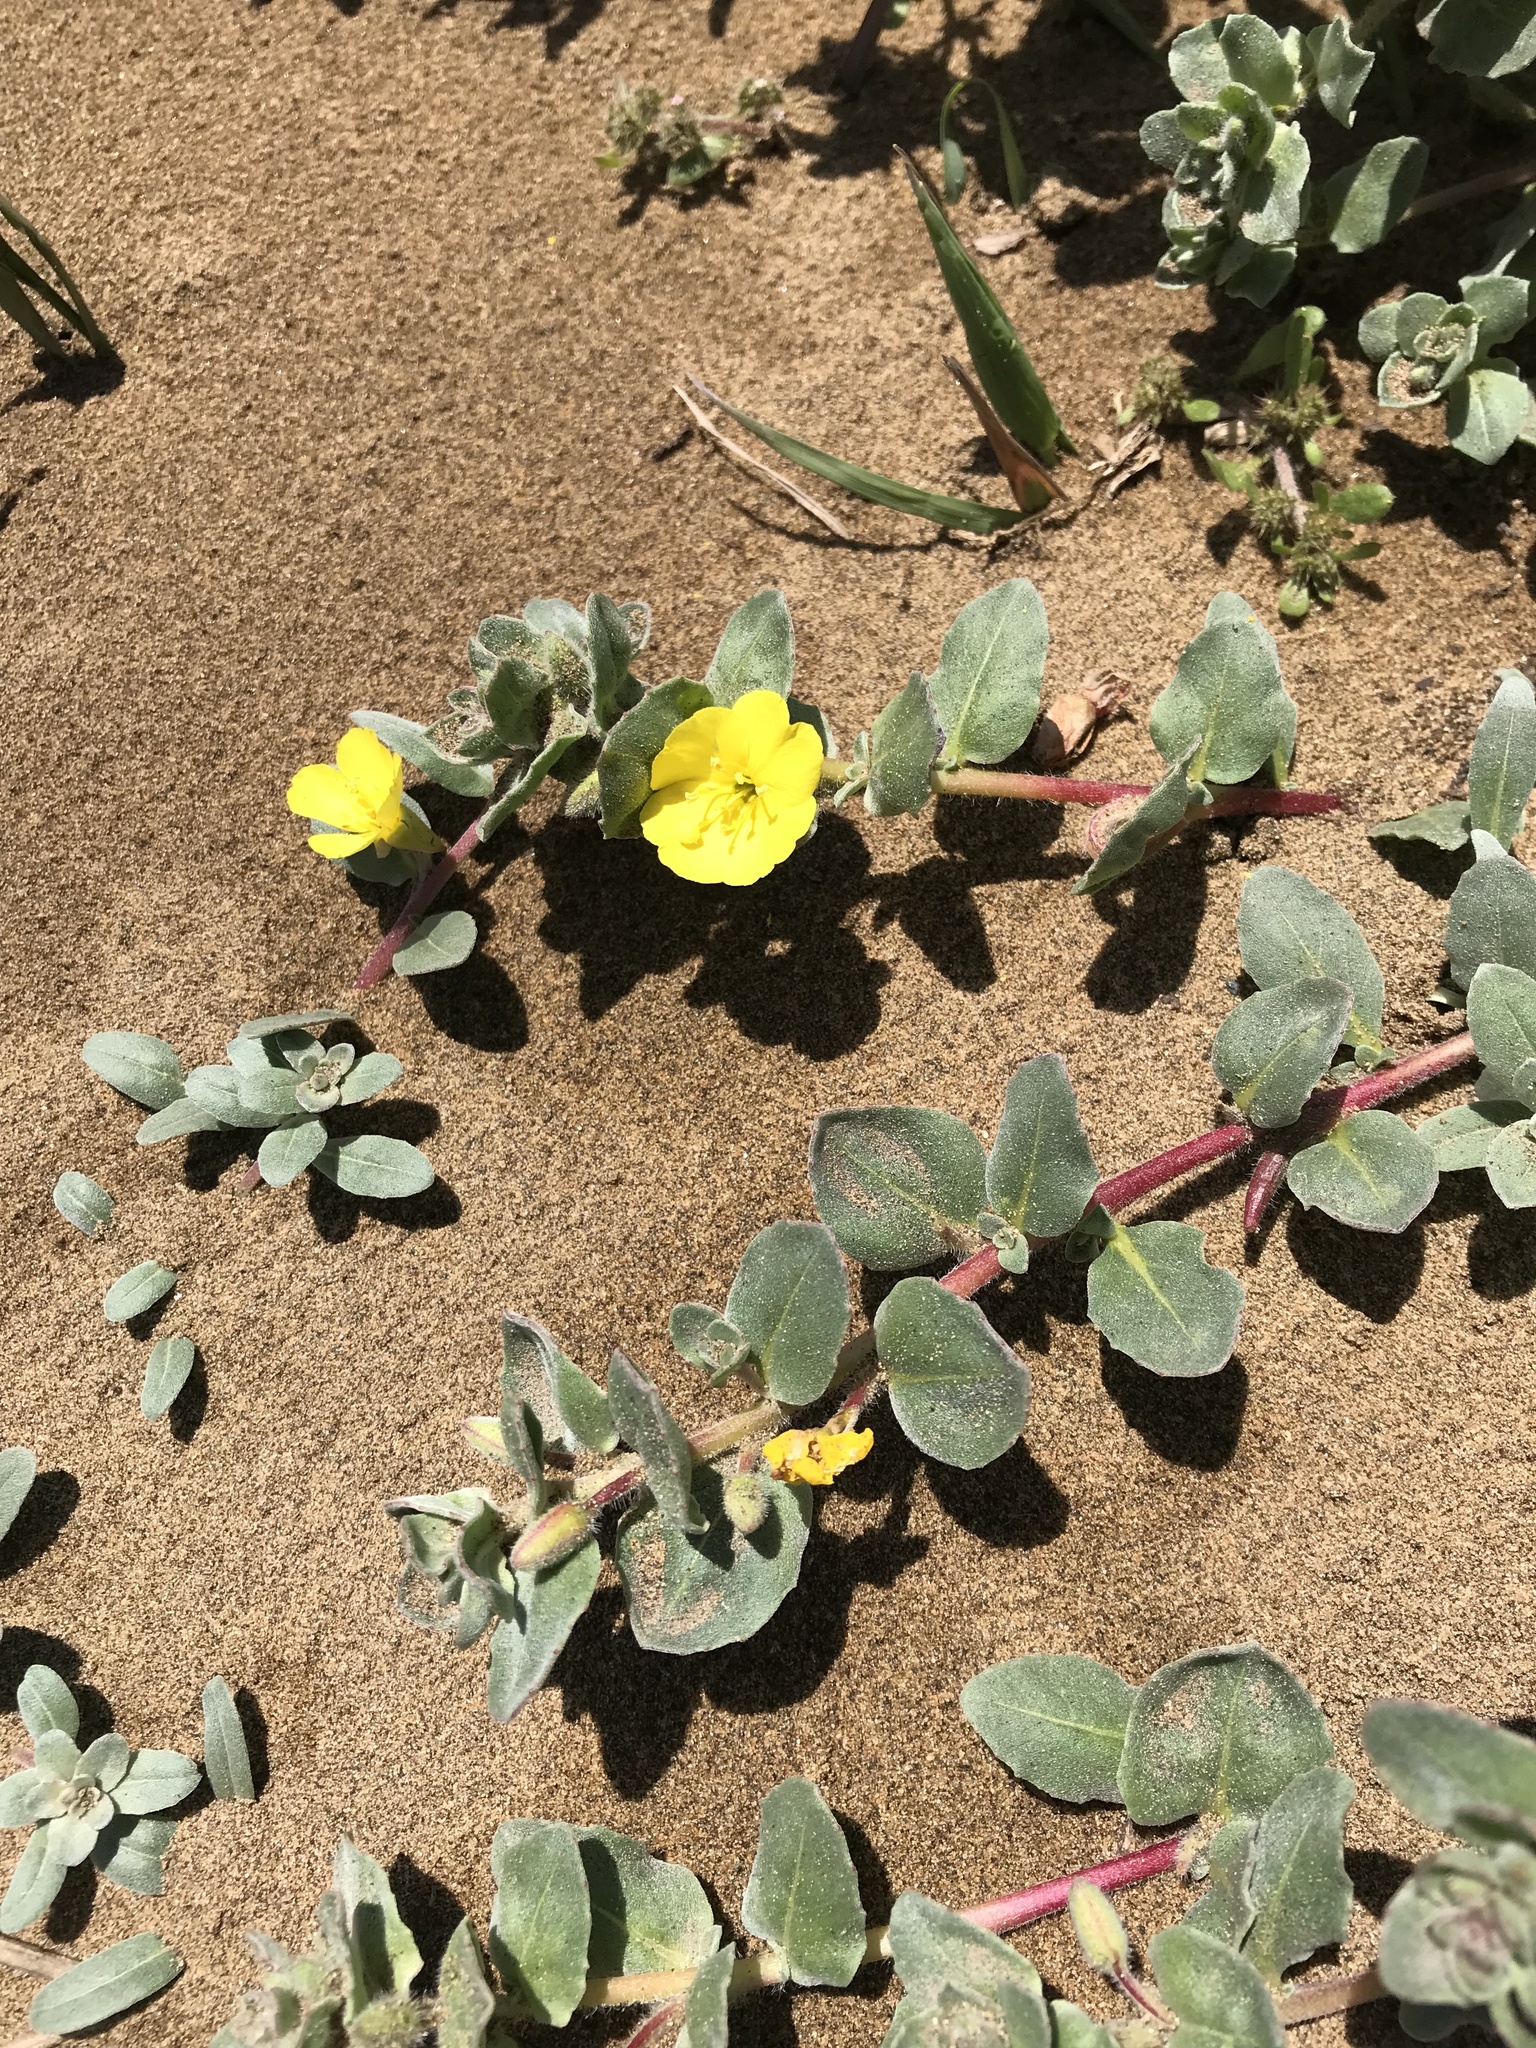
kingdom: Plantae
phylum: Tracheophyta
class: Magnoliopsida
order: Myrtales
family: Onagraceae
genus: Camissoniopsis
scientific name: Camissoniopsis cheiranthifolia
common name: Beach suncup
